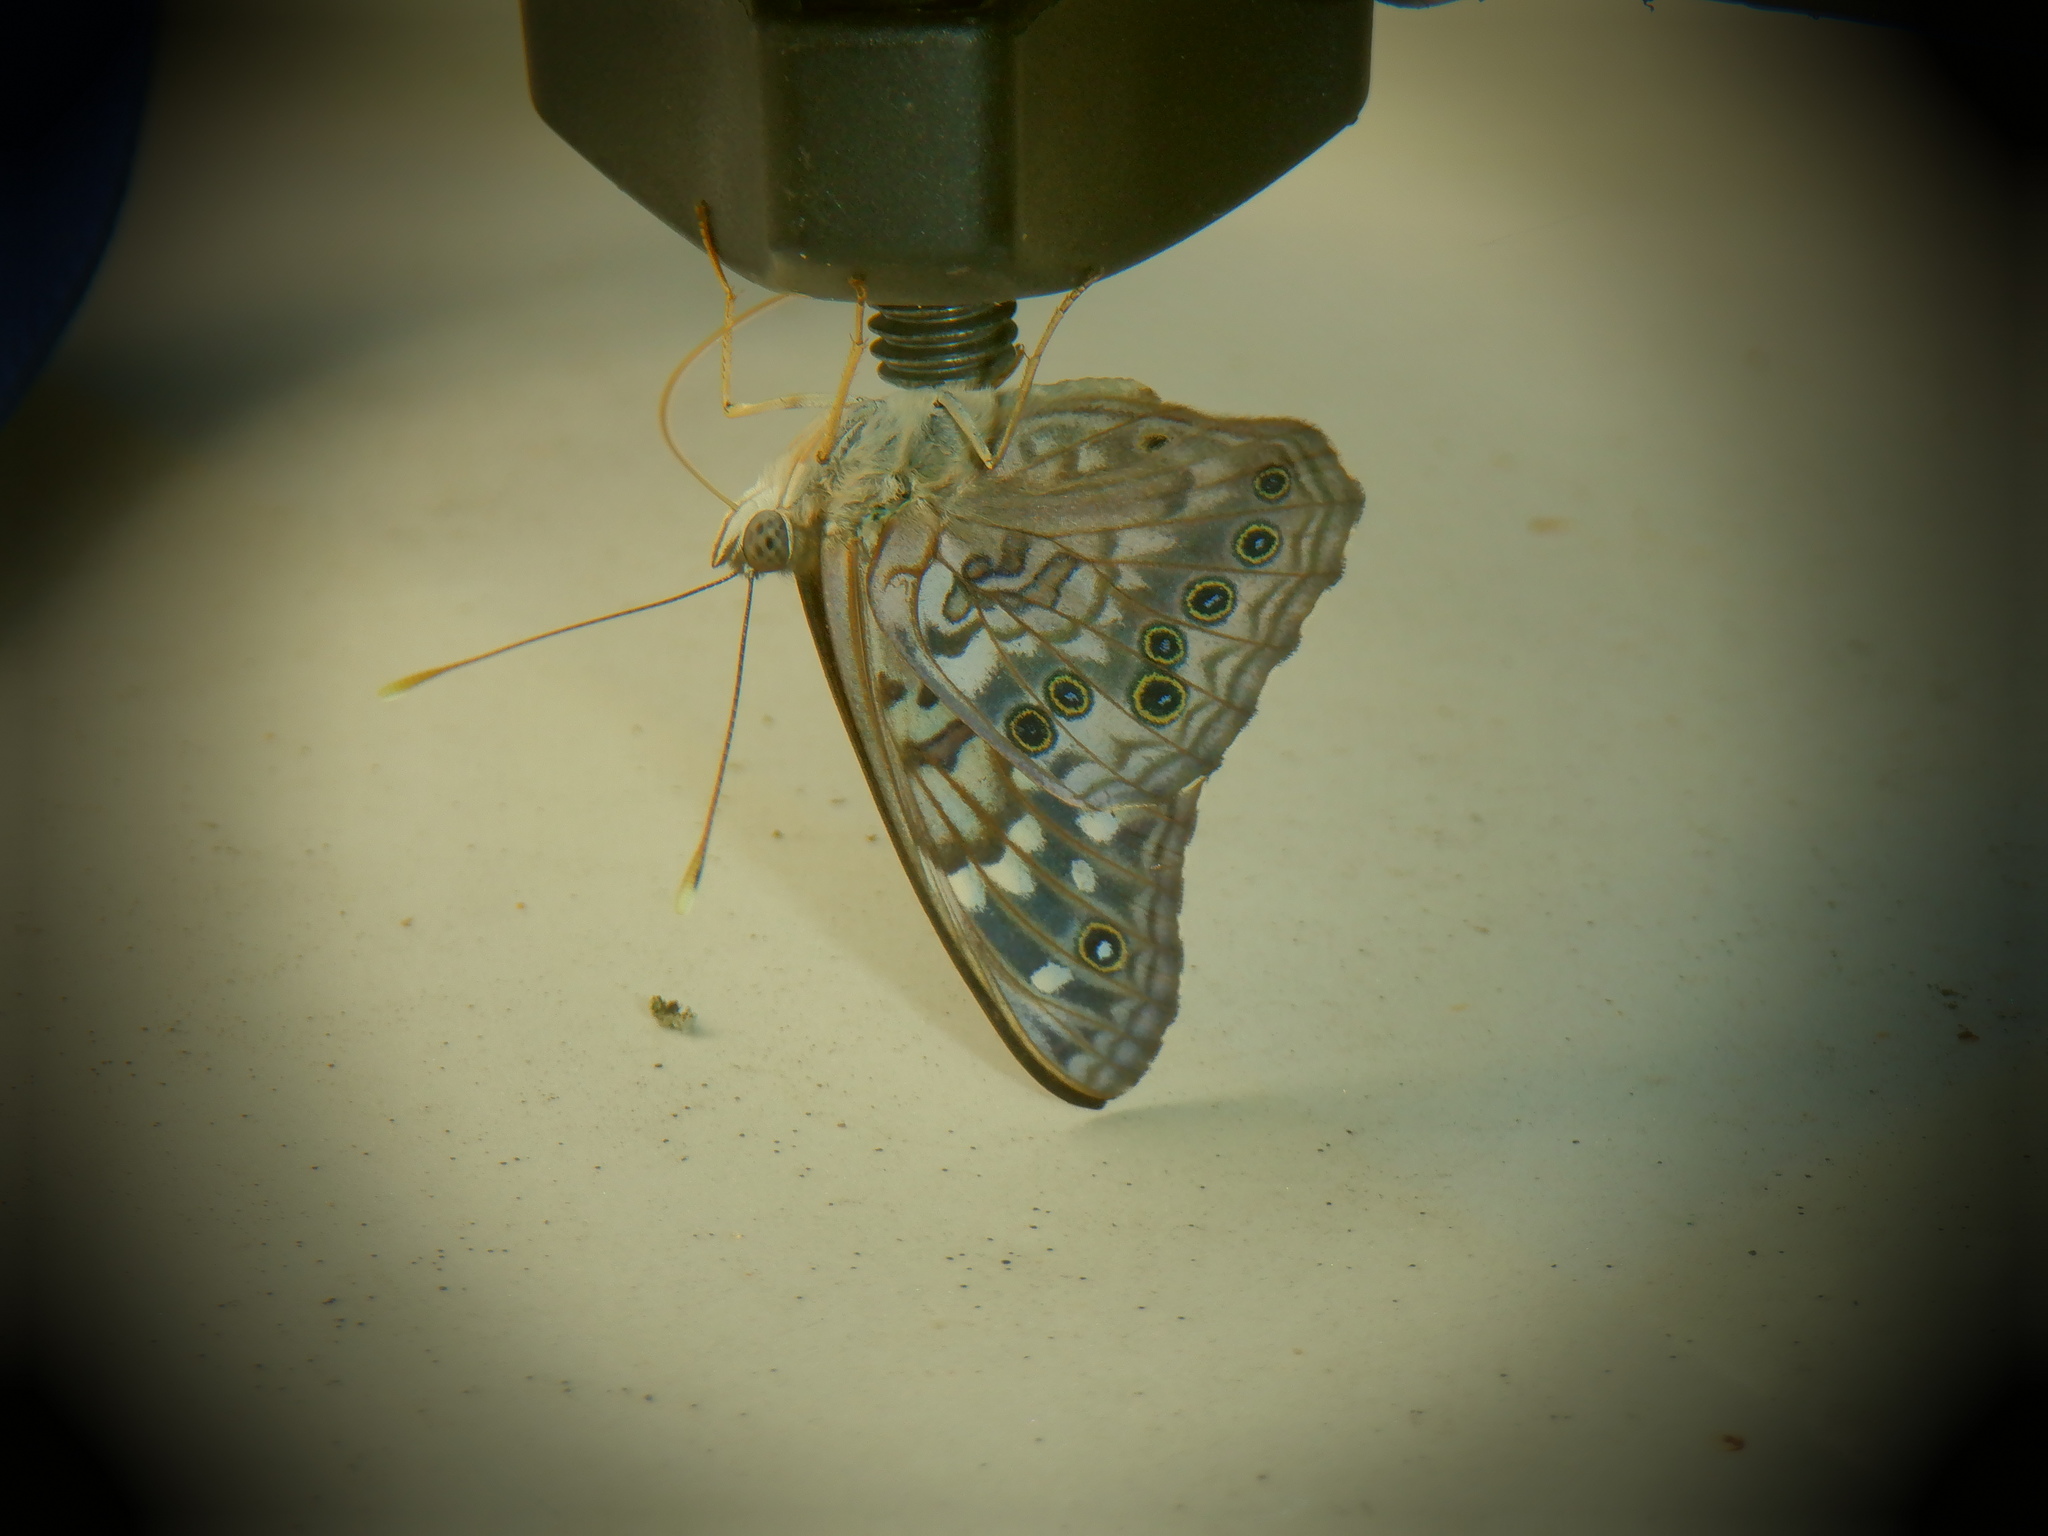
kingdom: Animalia
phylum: Arthropoda
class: Insecta
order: Lepidoptera
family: Nymphalidae
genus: Asterocampa
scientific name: Asterocampa celtis
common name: Hackberry emperor
